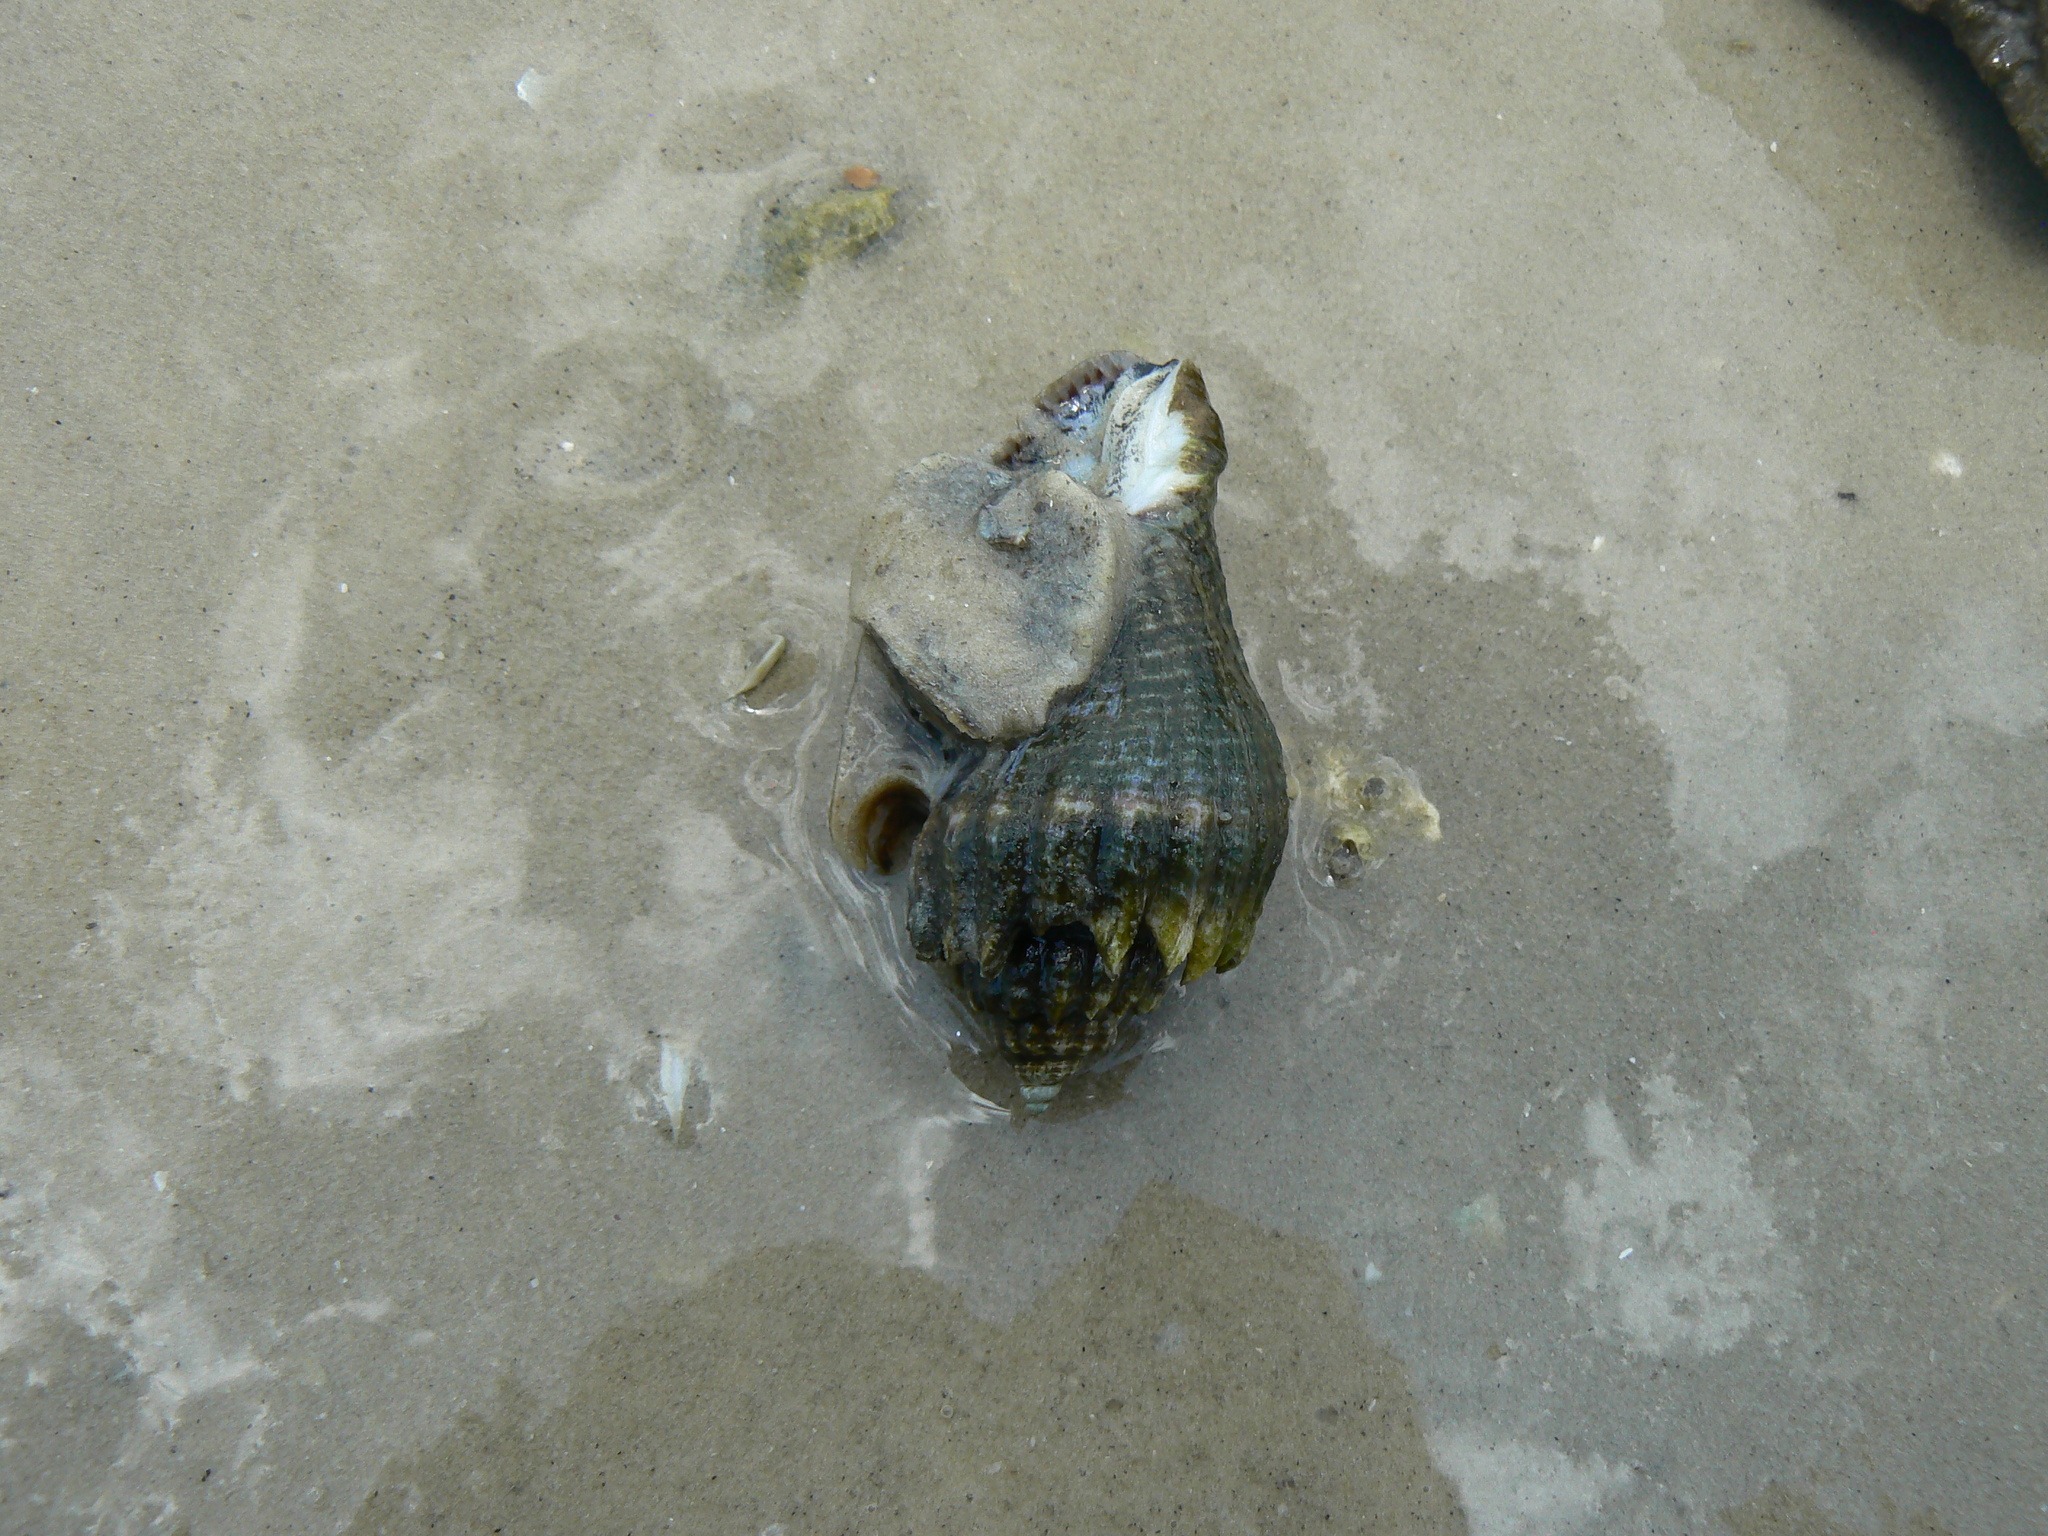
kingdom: Animalia
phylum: Mollusca
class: Gastropoda
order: Neogastropoda
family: Melongenidae
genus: Melongena
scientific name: Melongena corona
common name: American crown conch
